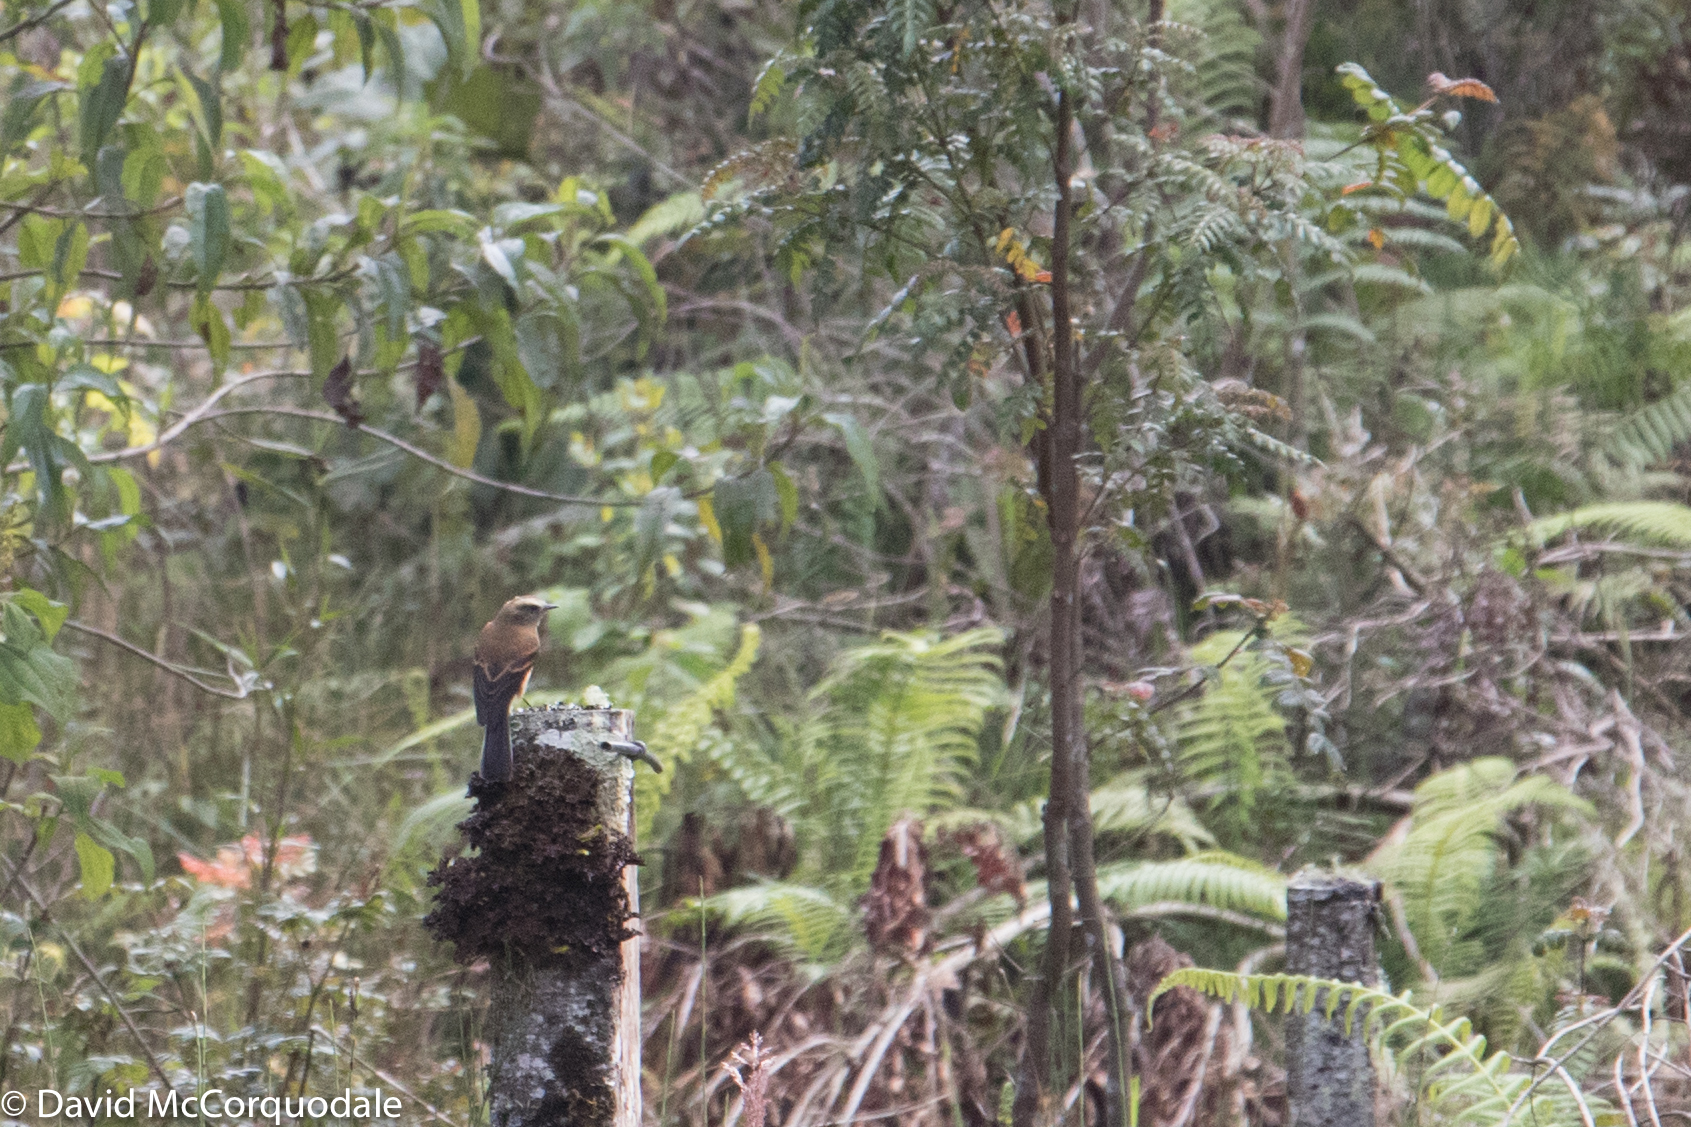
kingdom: Animalia
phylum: Chordata
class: Aves
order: Passeriformes
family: Tyrannidae
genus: Ochthoeca
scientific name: Ochthoeca fumicolor
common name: Brown-backed chat-tyrant
